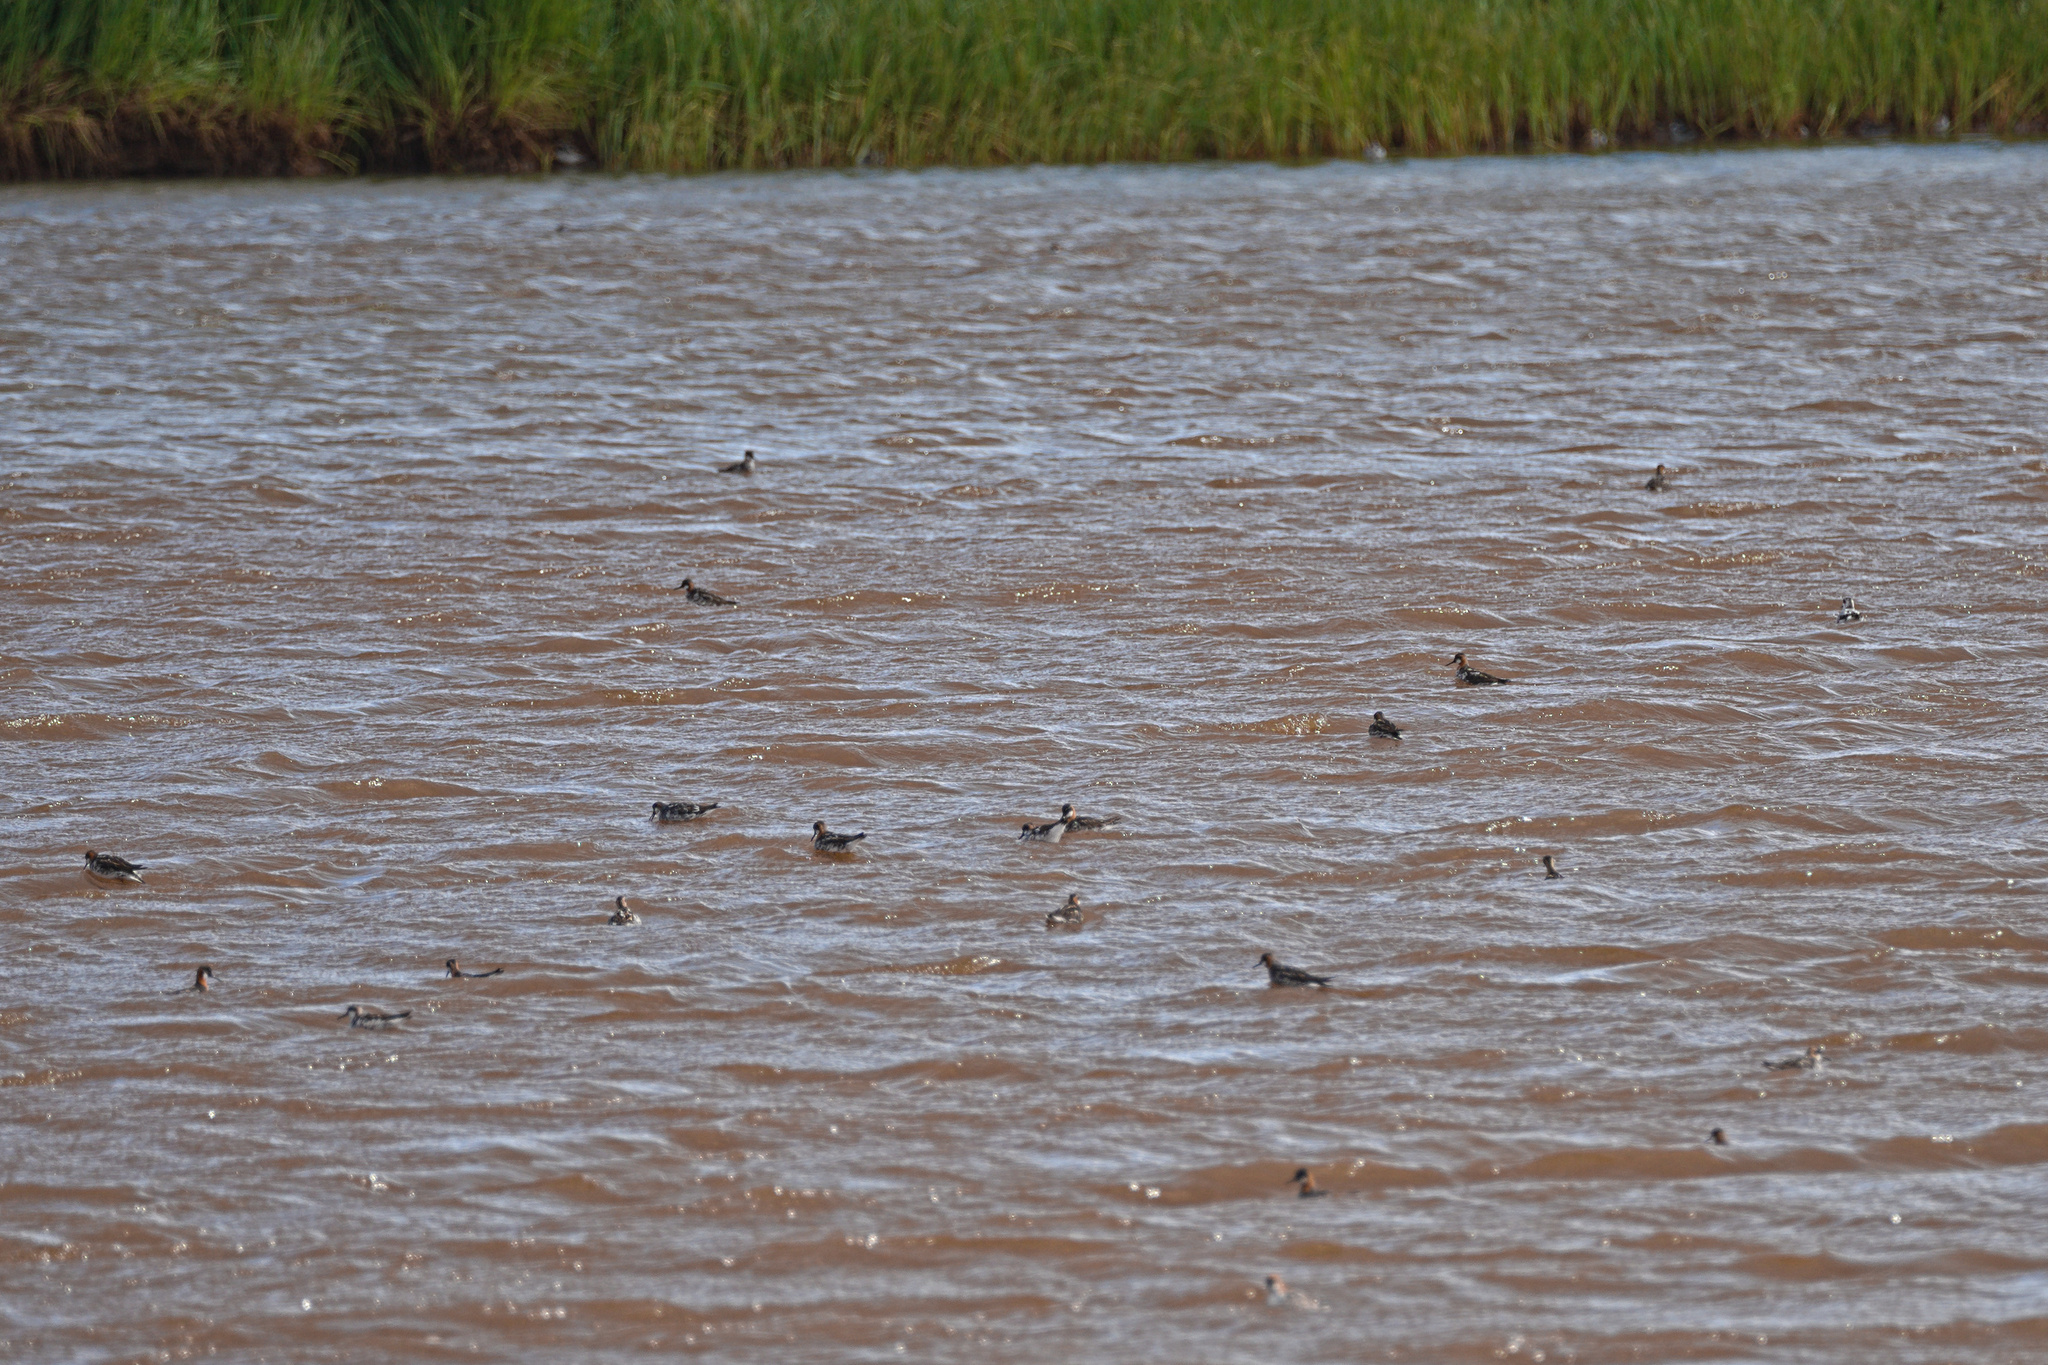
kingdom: Animalia
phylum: Chordata
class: Aves
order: Charadriiformes
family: Scolopacidae
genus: Phalaropus
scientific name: Phalaropus lobatus
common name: Red-necked phalarope
